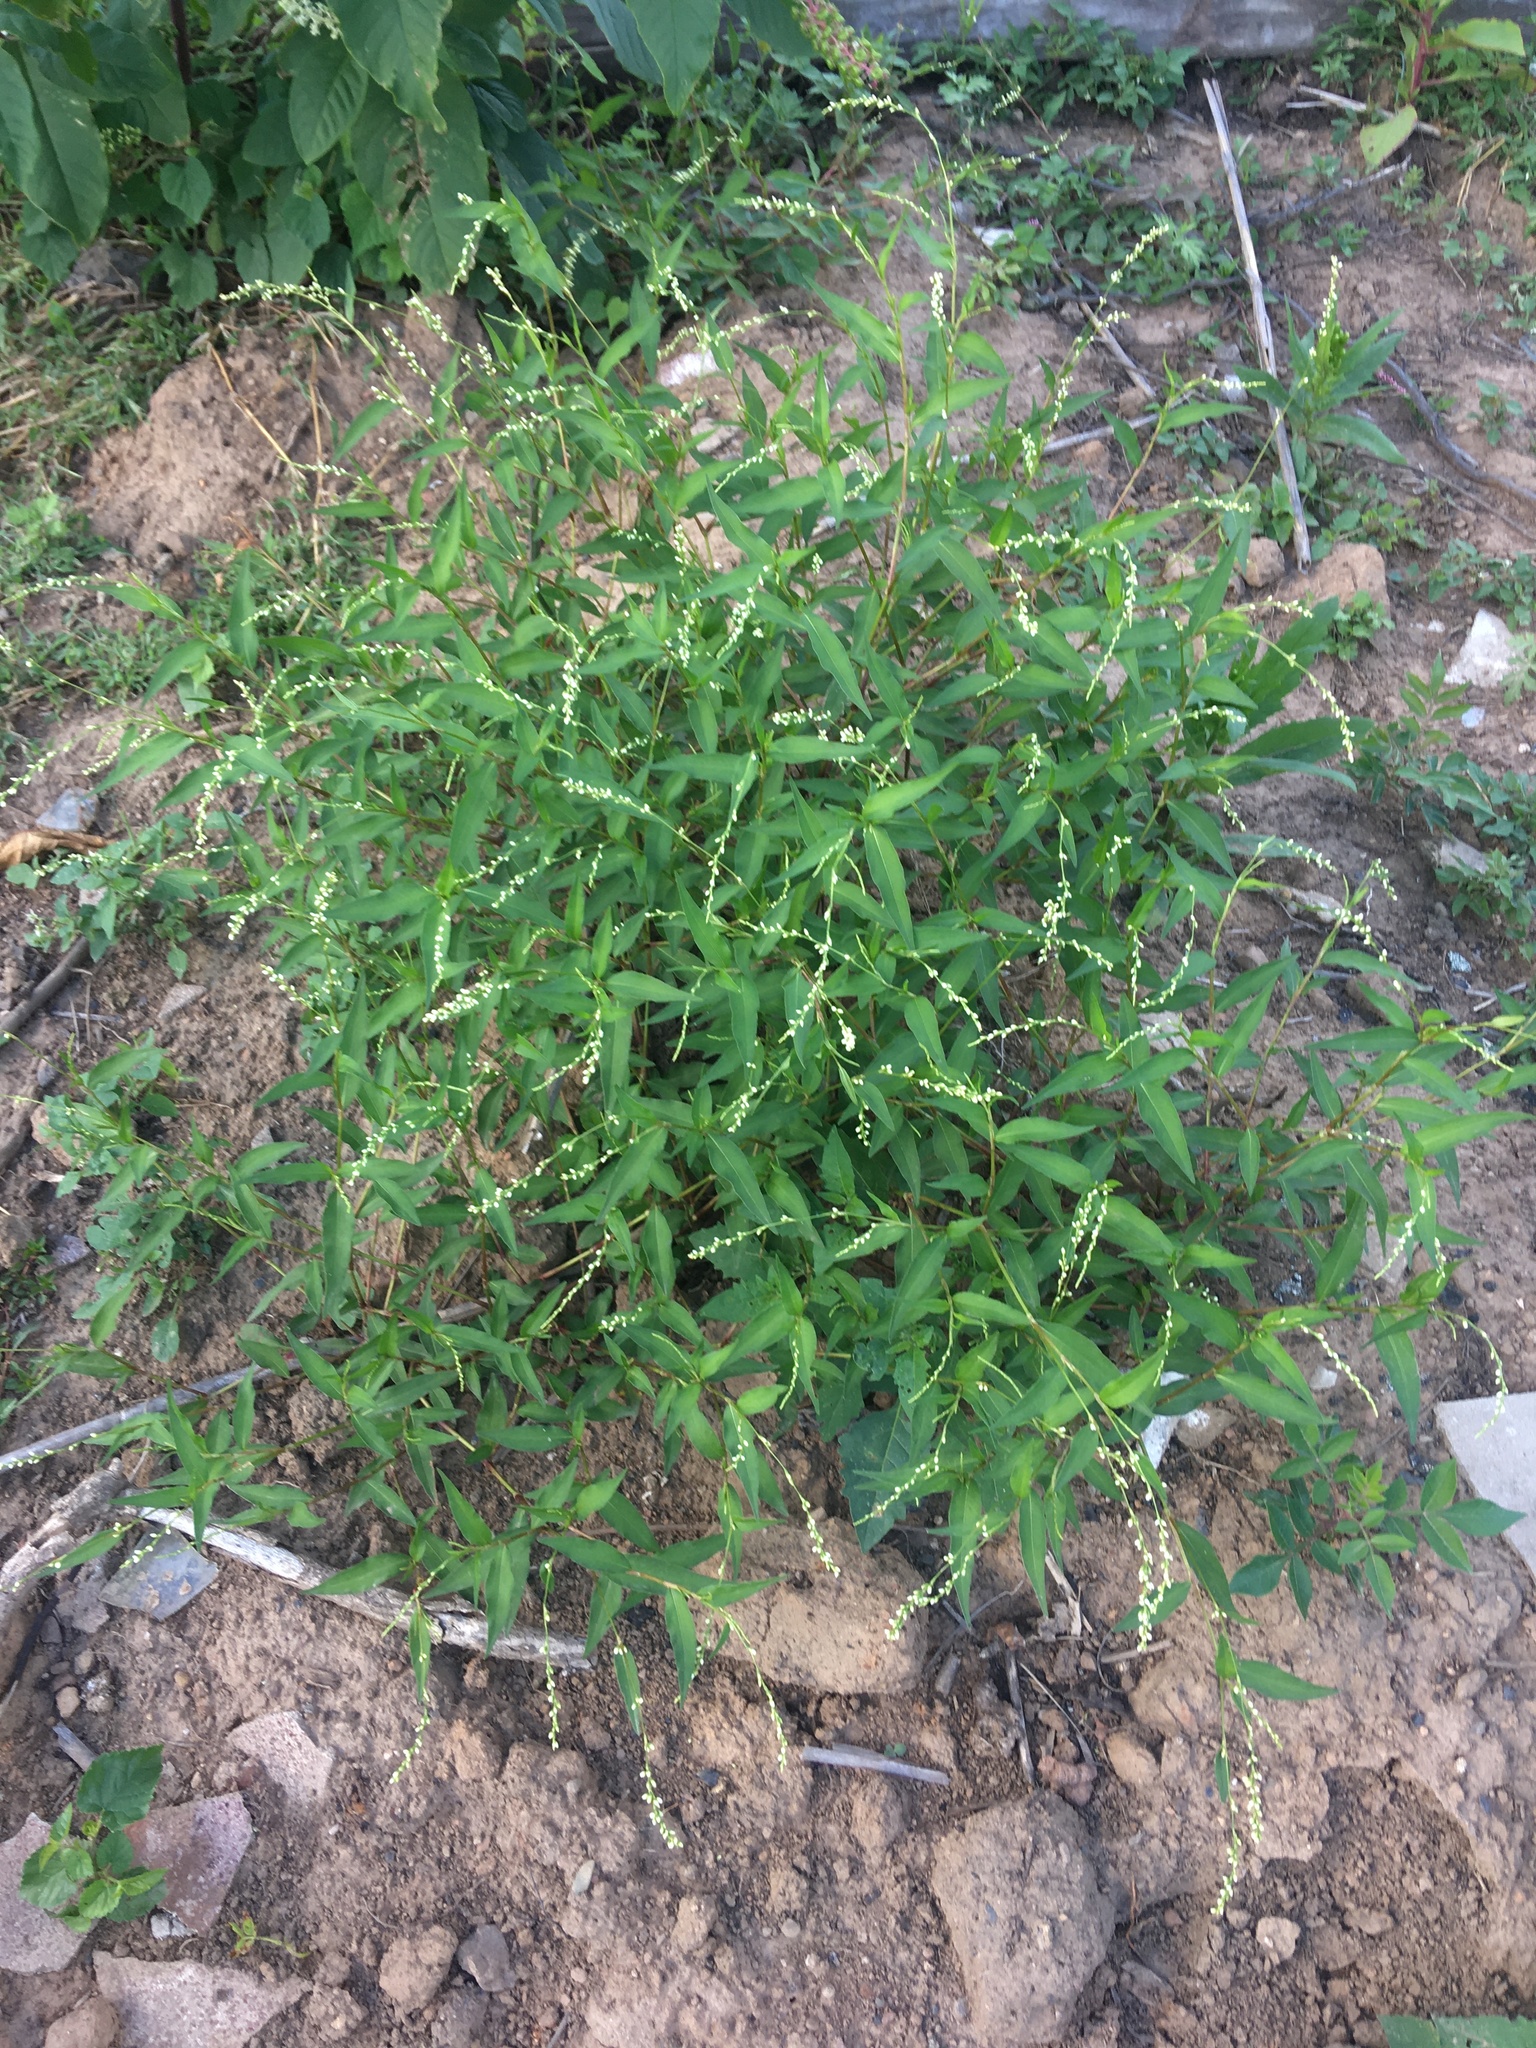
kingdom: Plantae
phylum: Tracheophyta
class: Magnoliopsida
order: Caryophyllales
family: Polygonaceae
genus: Persicaria
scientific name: Persicaria punctata
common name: Dotted smartweed
